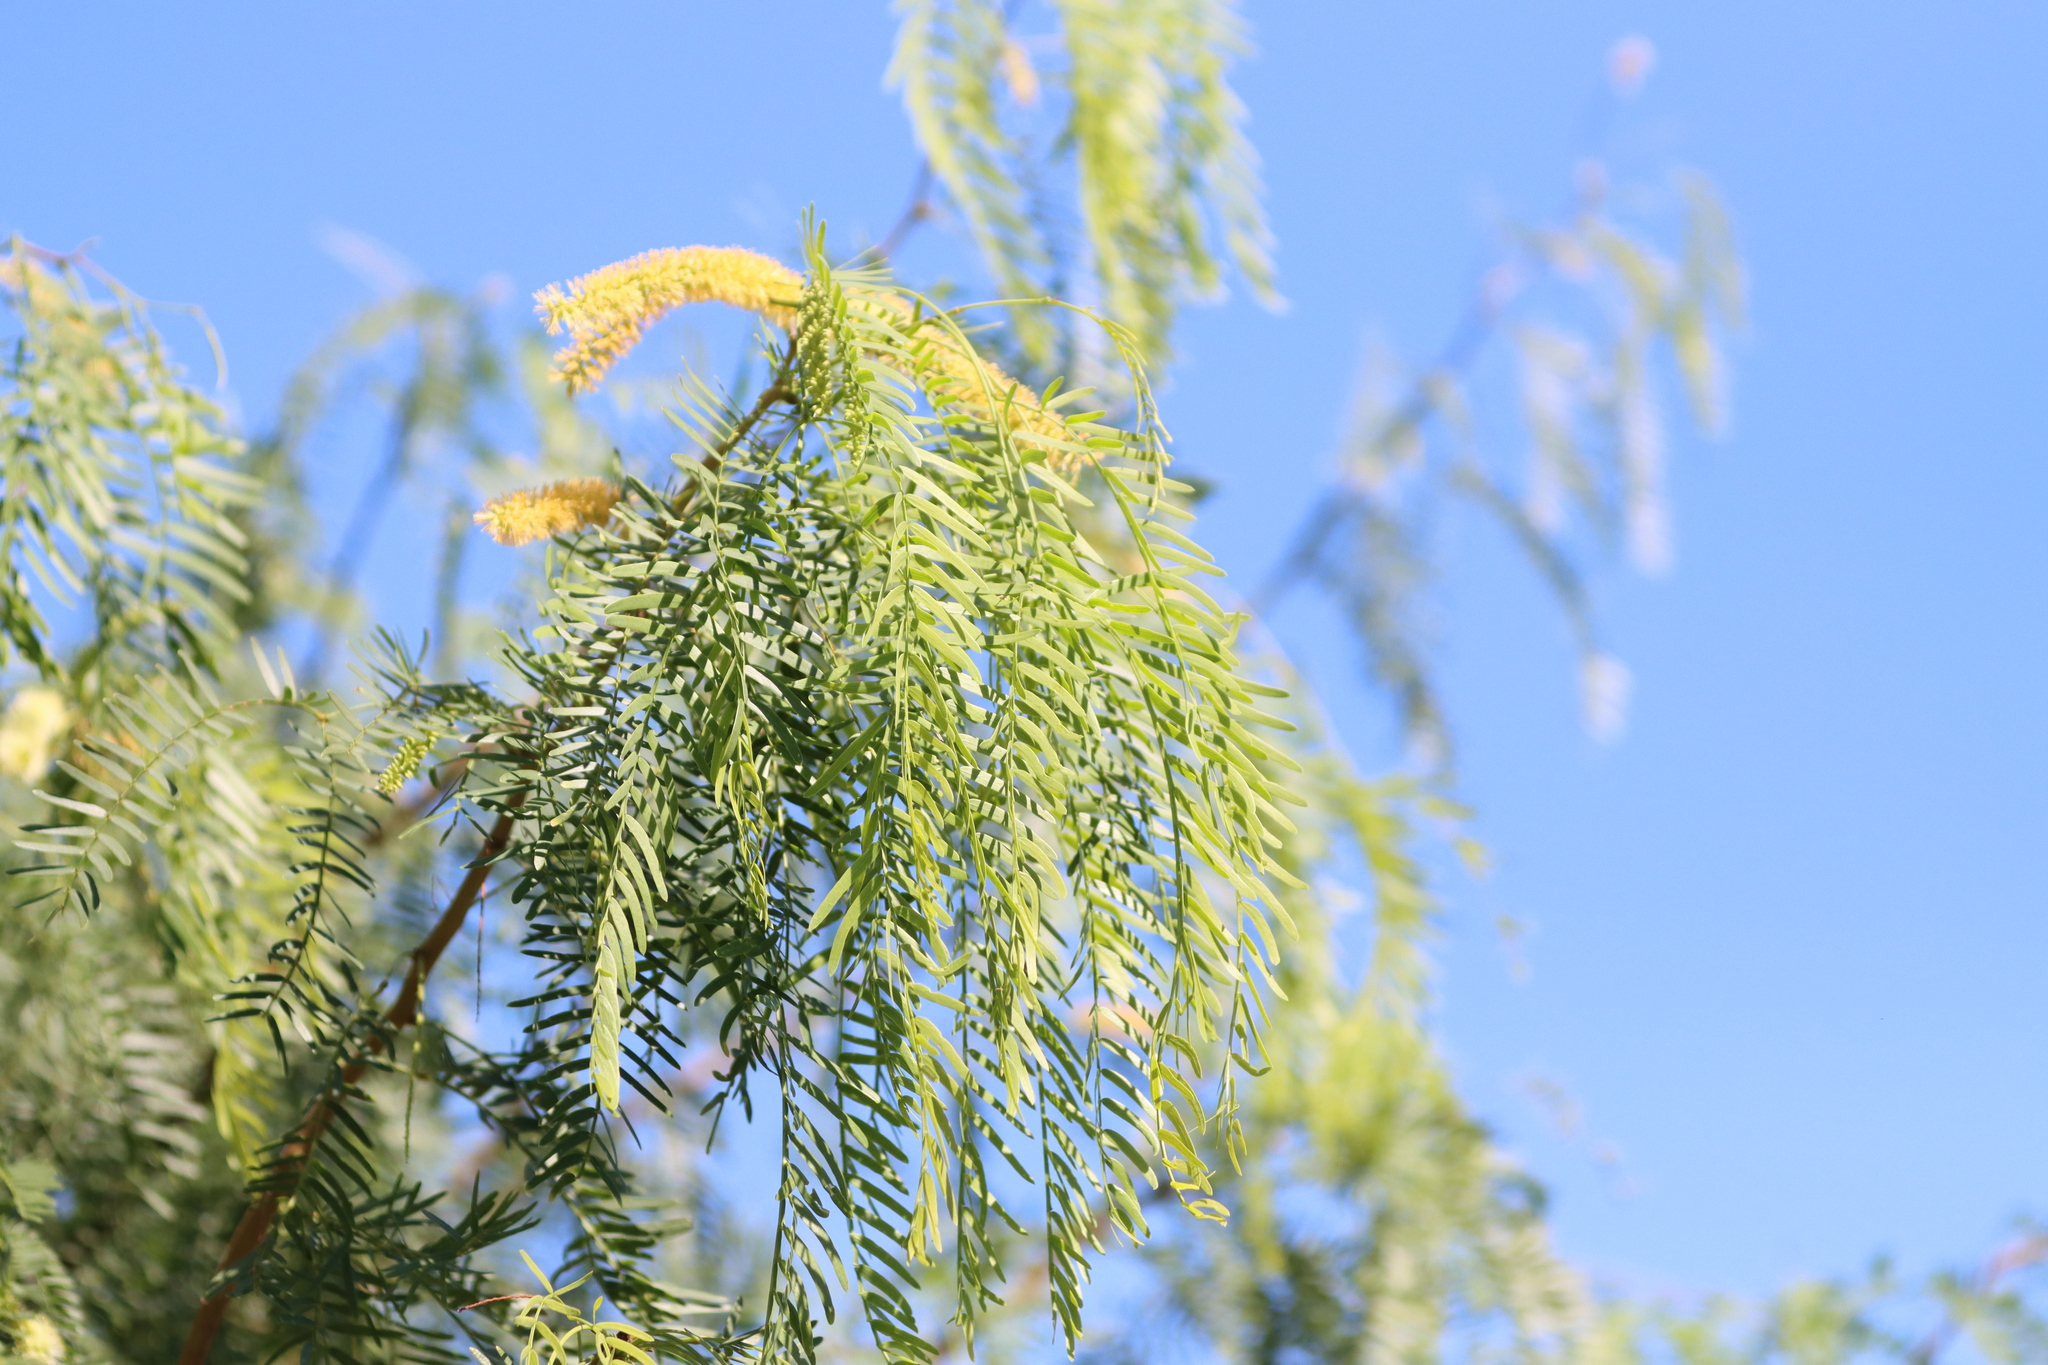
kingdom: Plantae
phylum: Tracheophyta
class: Magnoliopsida
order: Fabales
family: Fabaceae
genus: Prosopis
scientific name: Prosopis glandulosa
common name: Honey mesquite
